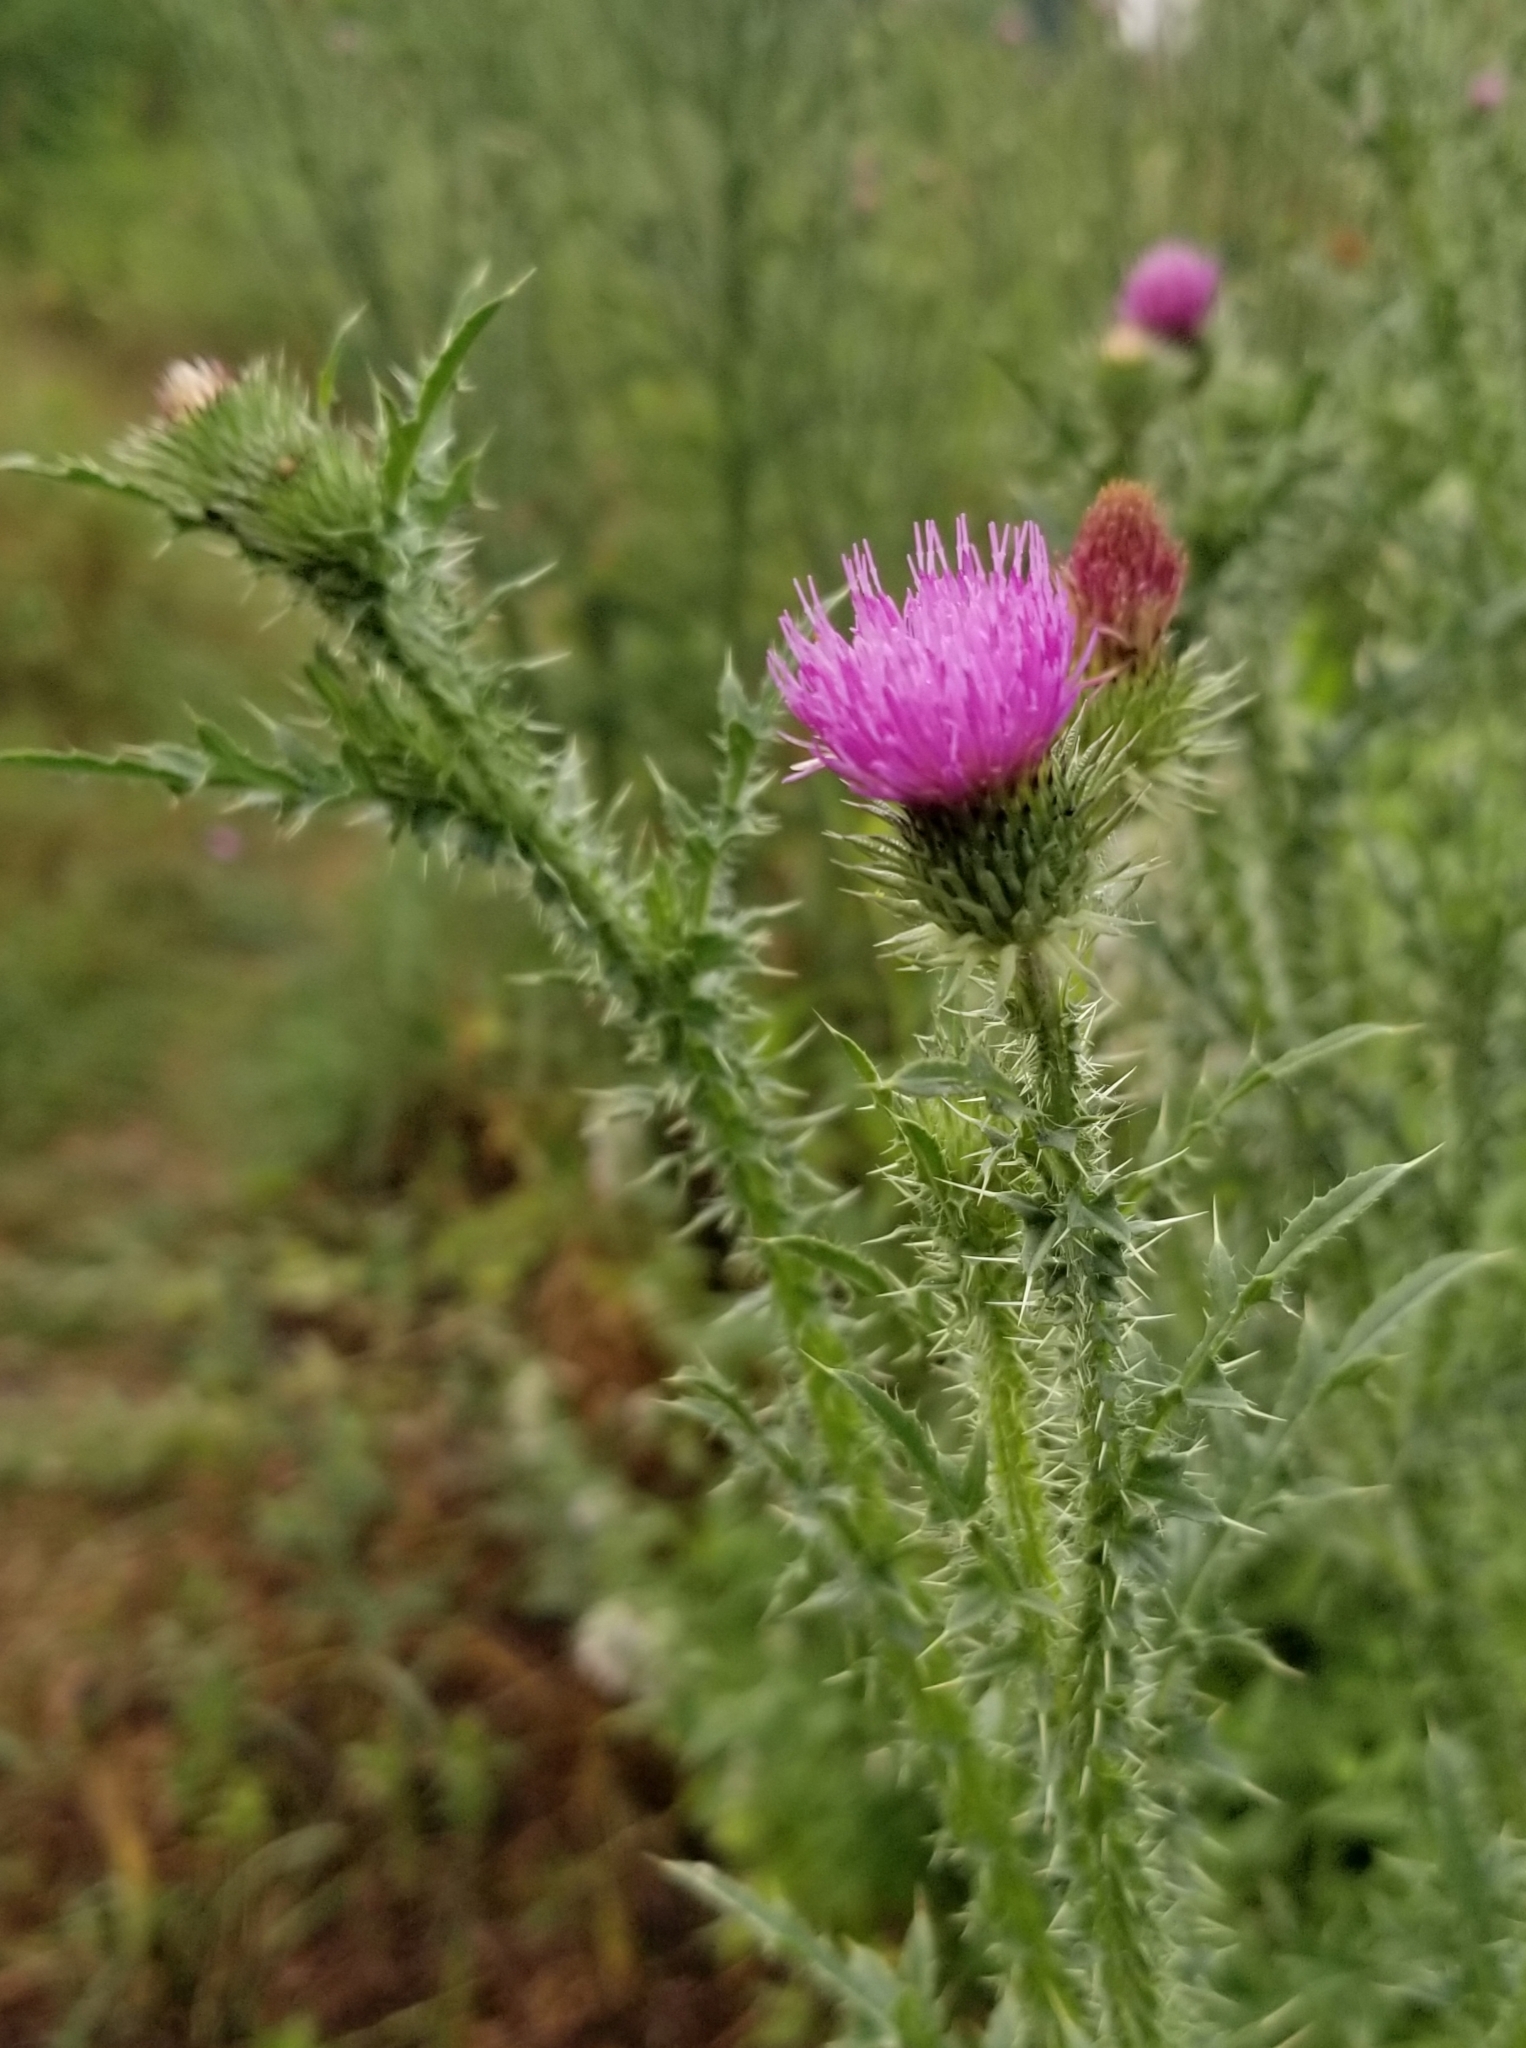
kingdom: Plantae
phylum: Tracheophyta
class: Magnoliopsida
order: Asterales
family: Asteraceae
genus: Carduus
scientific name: Carduus acanthoides
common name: Plumeless thistle
